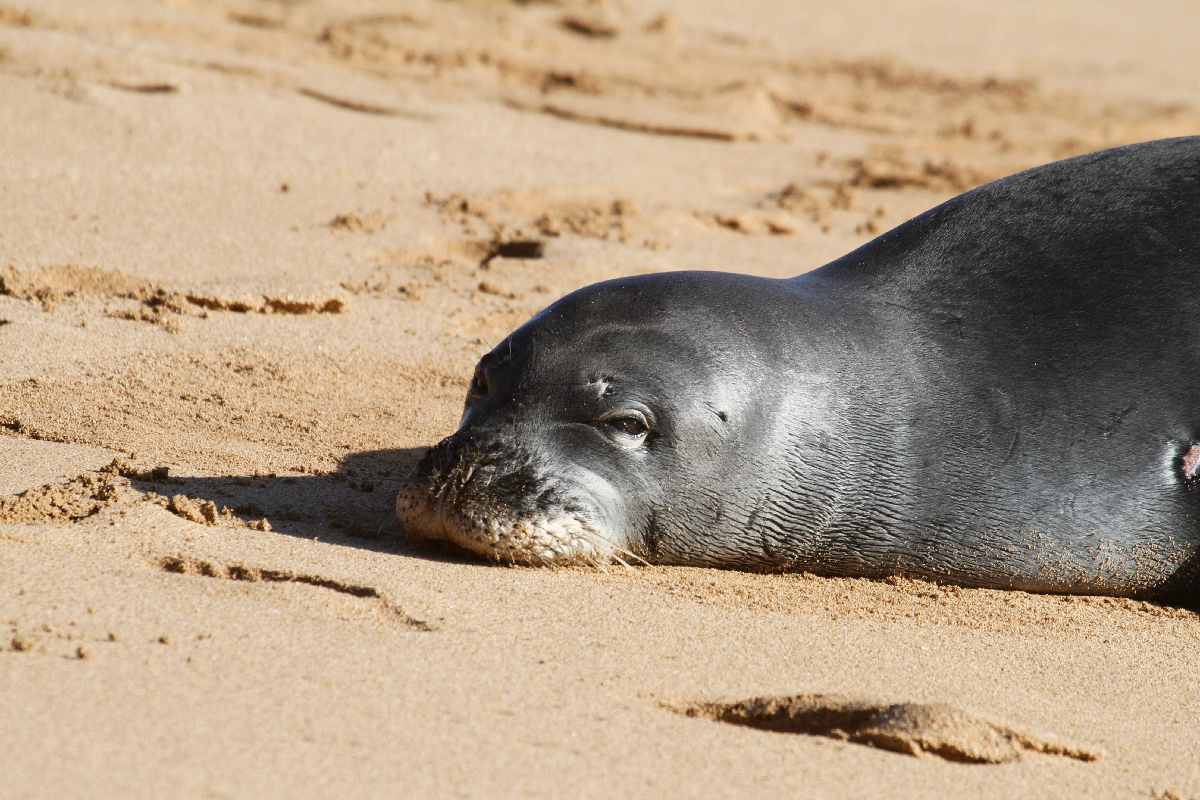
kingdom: Animalia
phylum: Chordata
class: Mammalia
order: Carnivora
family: Phocidae
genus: Neomonachus
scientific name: Neomonachus schauinslandi
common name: Hawaiian monk seal
